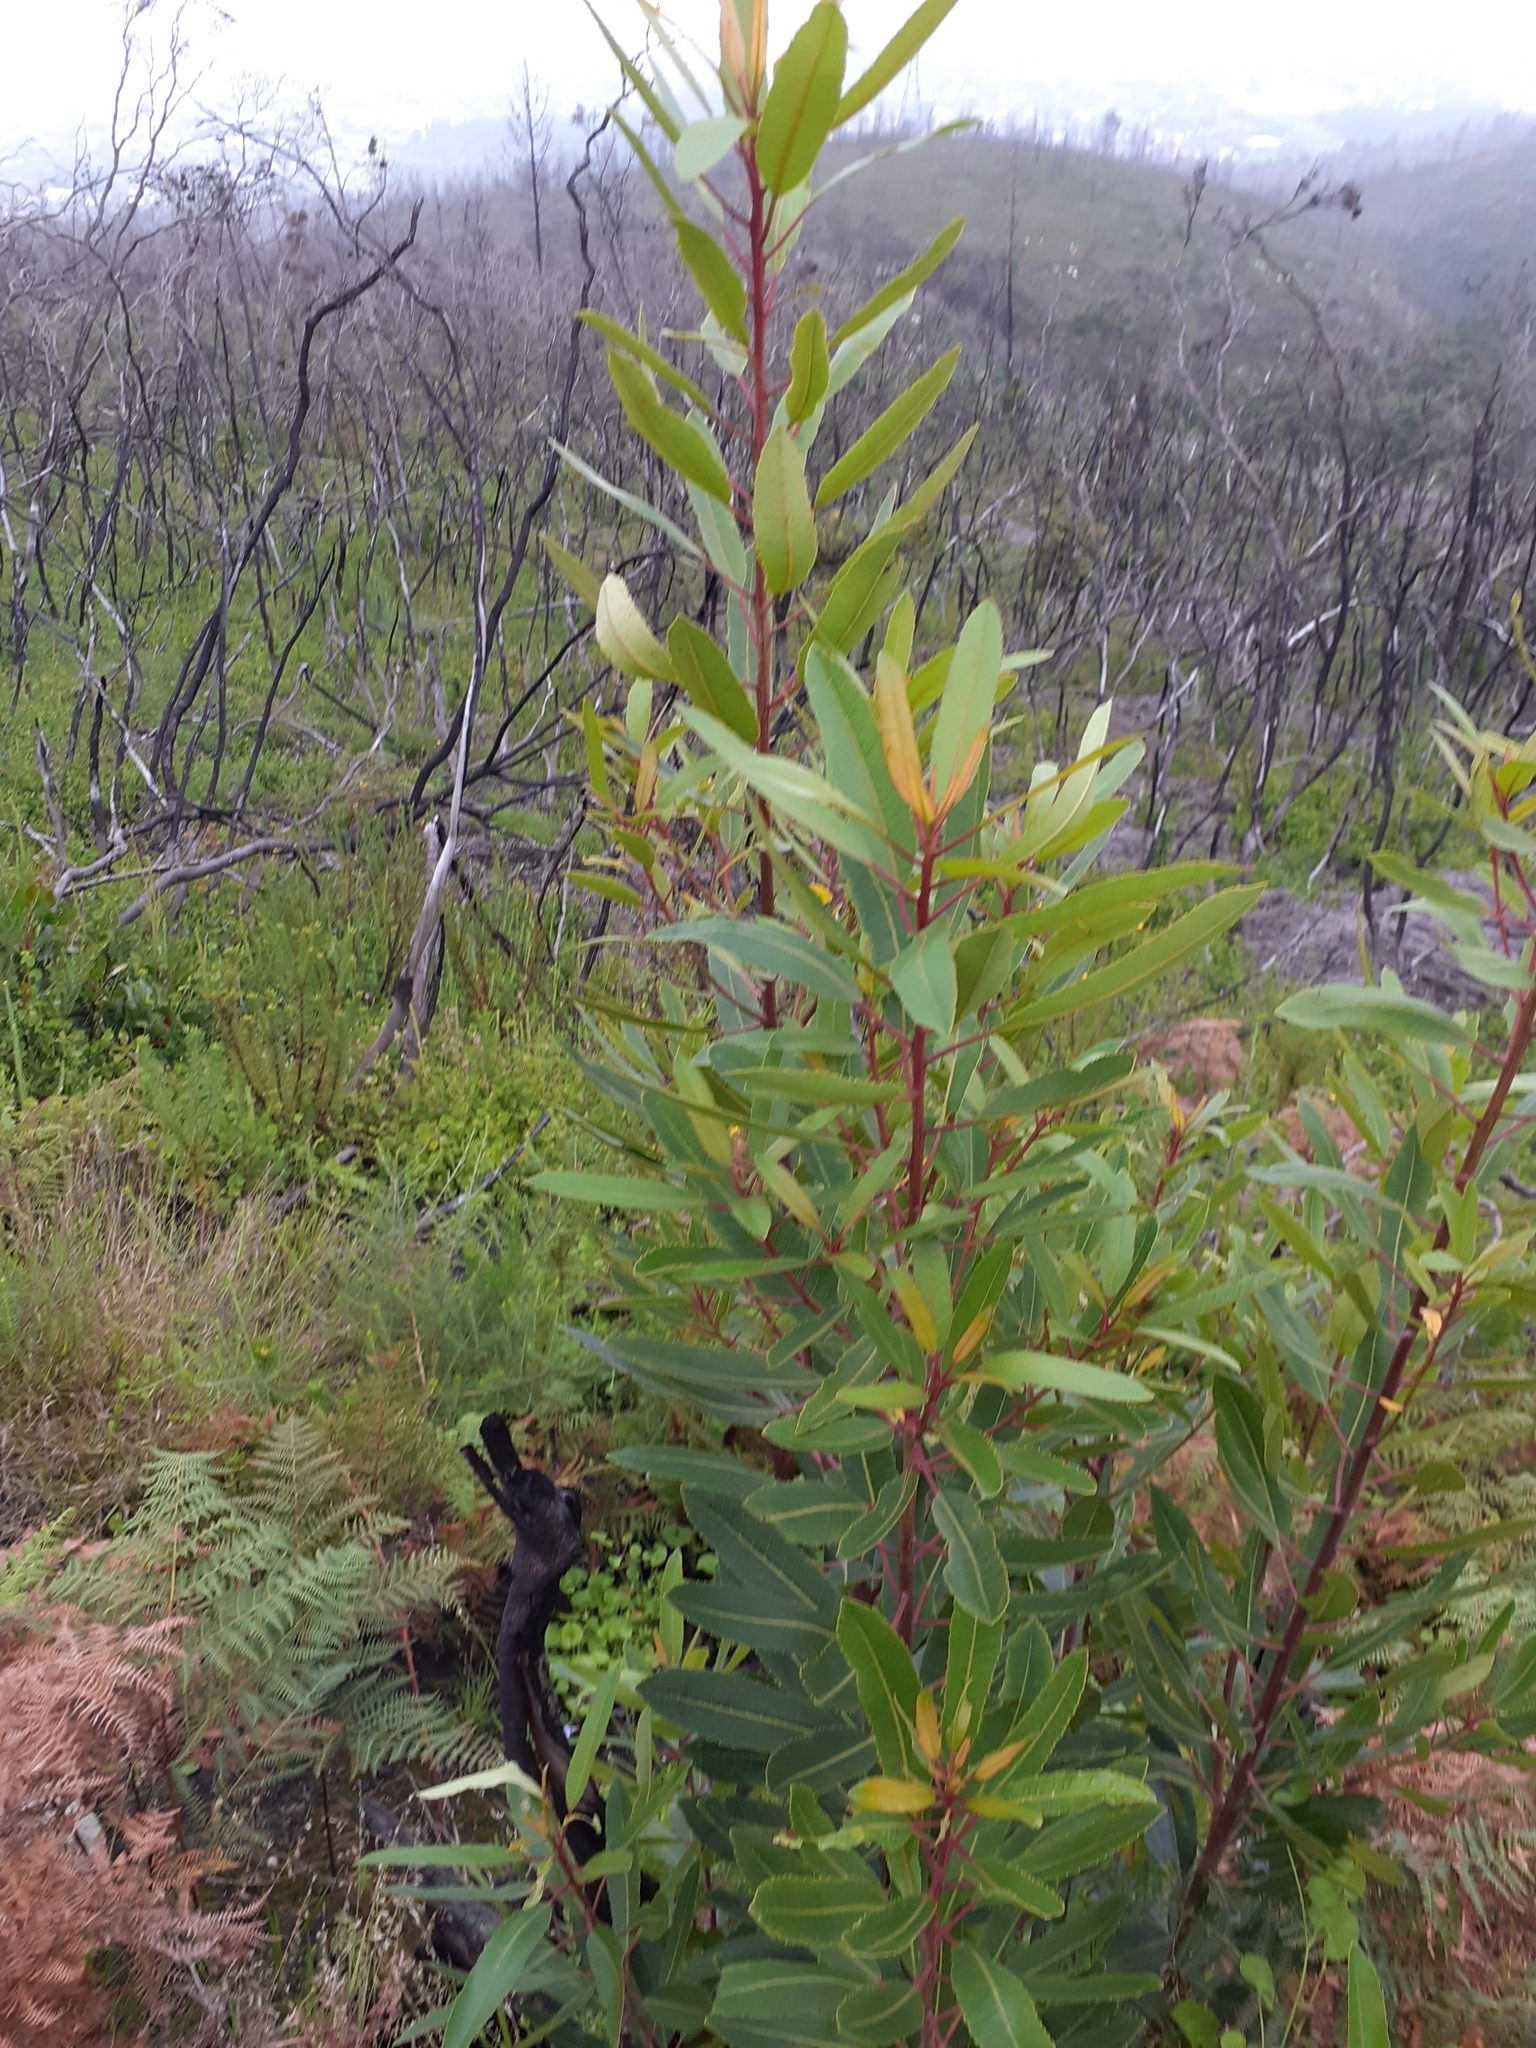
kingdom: Plantae
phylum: Tracheophyta
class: Magnoliopsida
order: Sapindales
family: Anacardiaceae
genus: Laurophyllus
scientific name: Laurophyllus capensis
